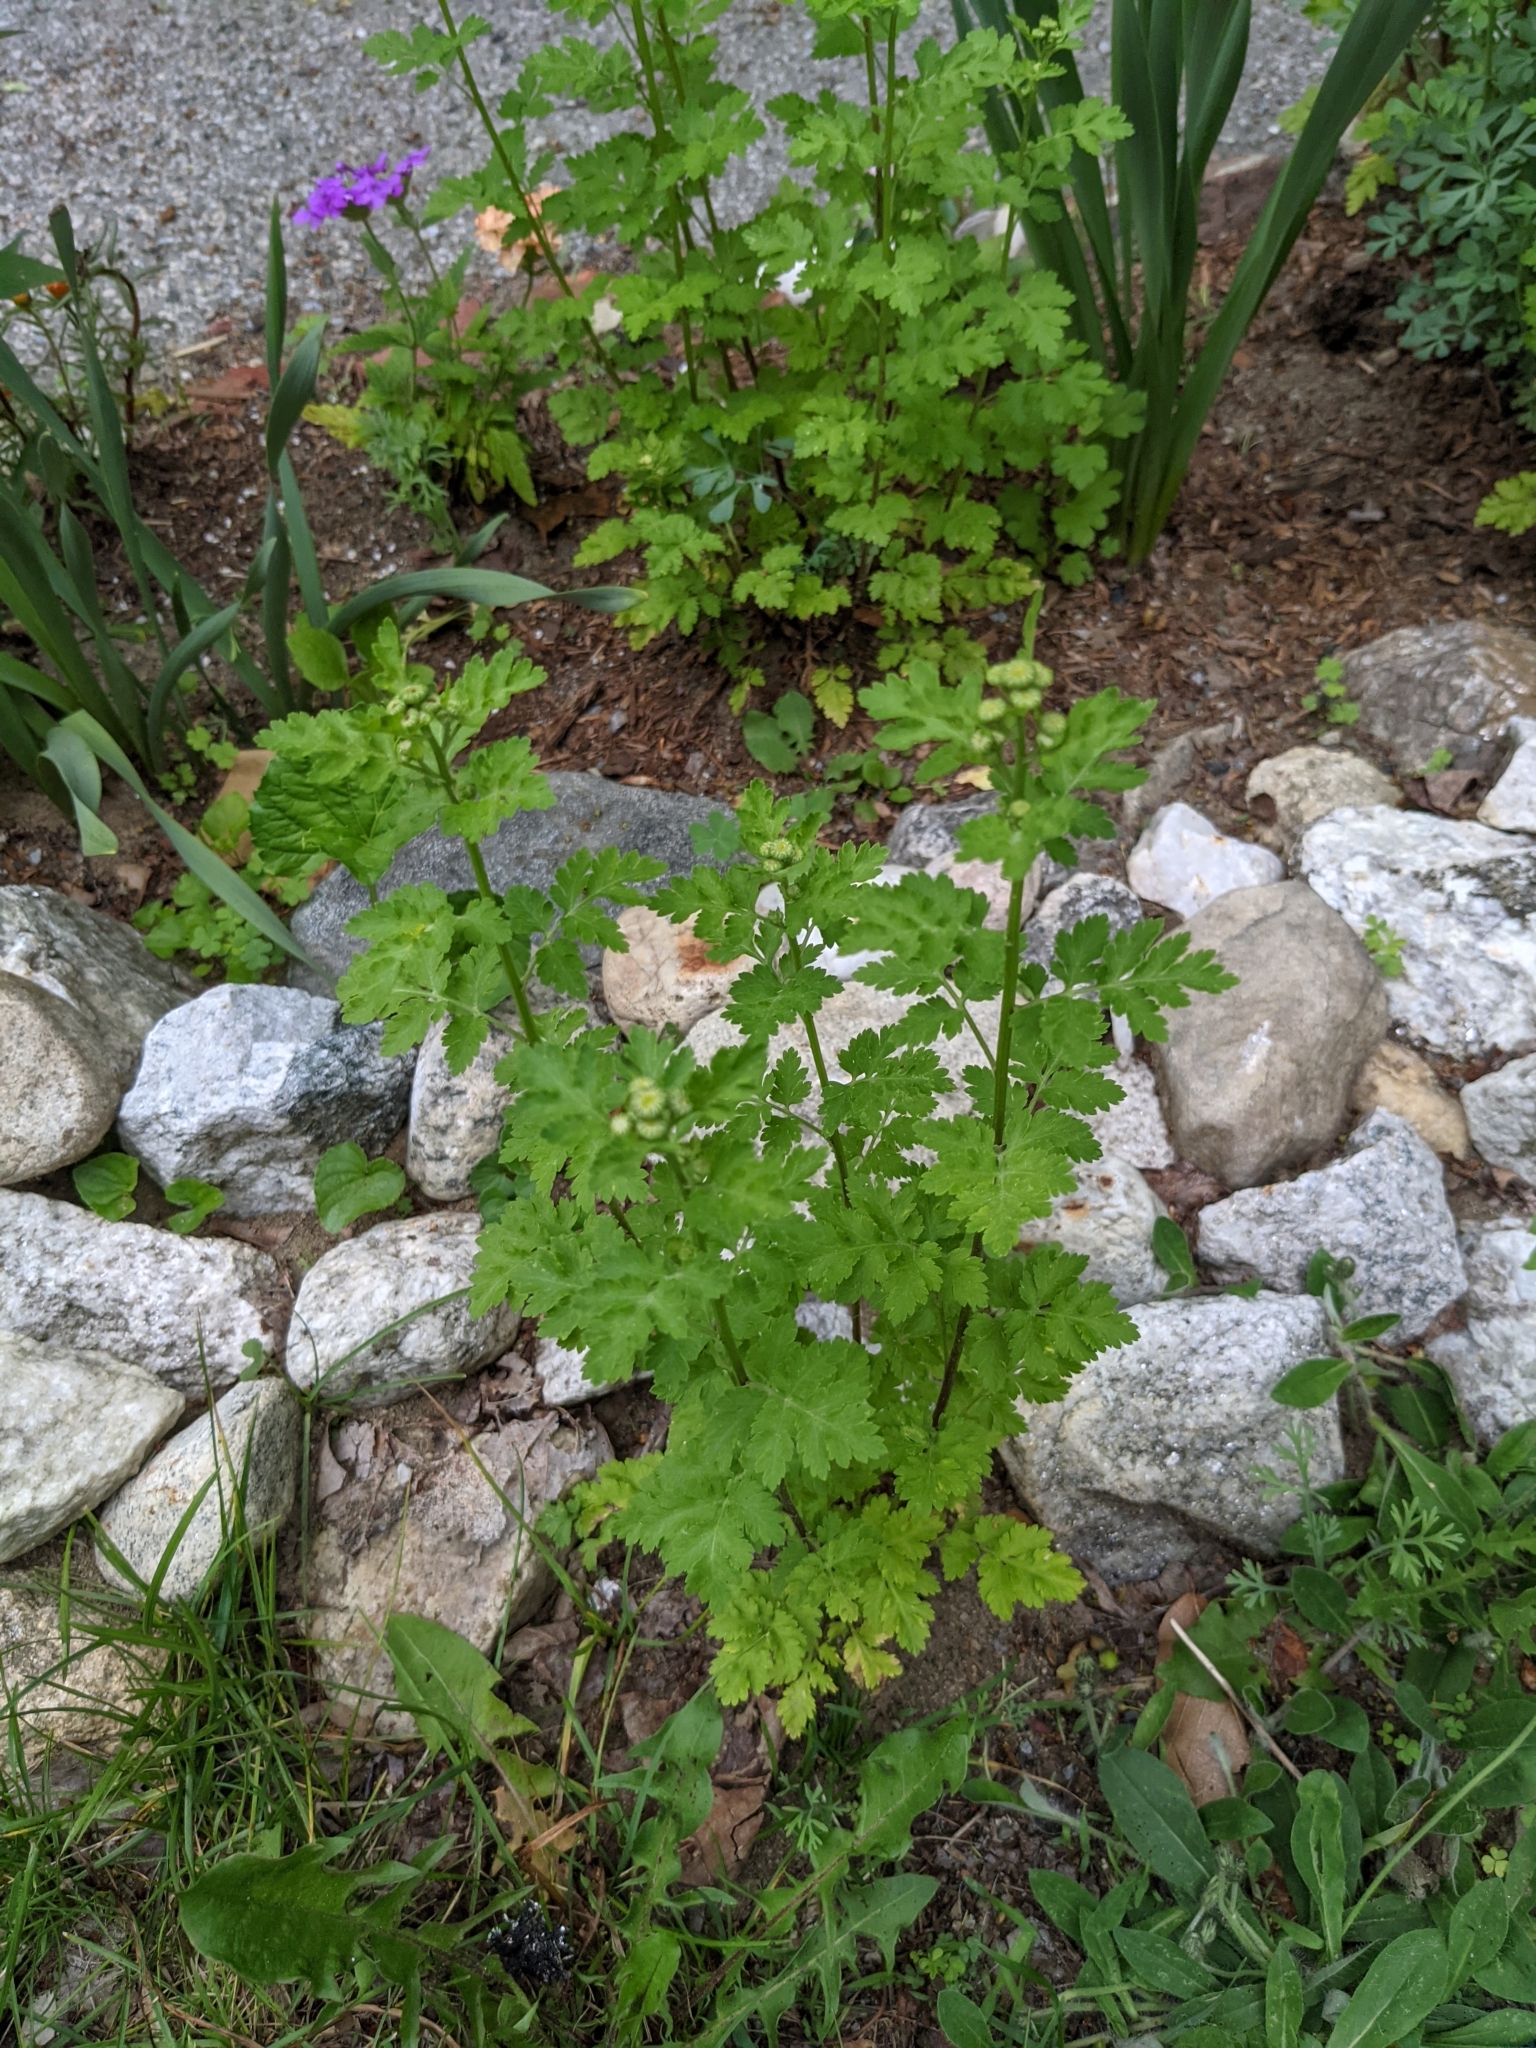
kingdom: Plantae
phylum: Tracheophyta
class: Magnoliopsida
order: Asterales
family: Asteraceae
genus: Tanacetum
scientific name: Tanacetum parthenium
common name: Feverfew
